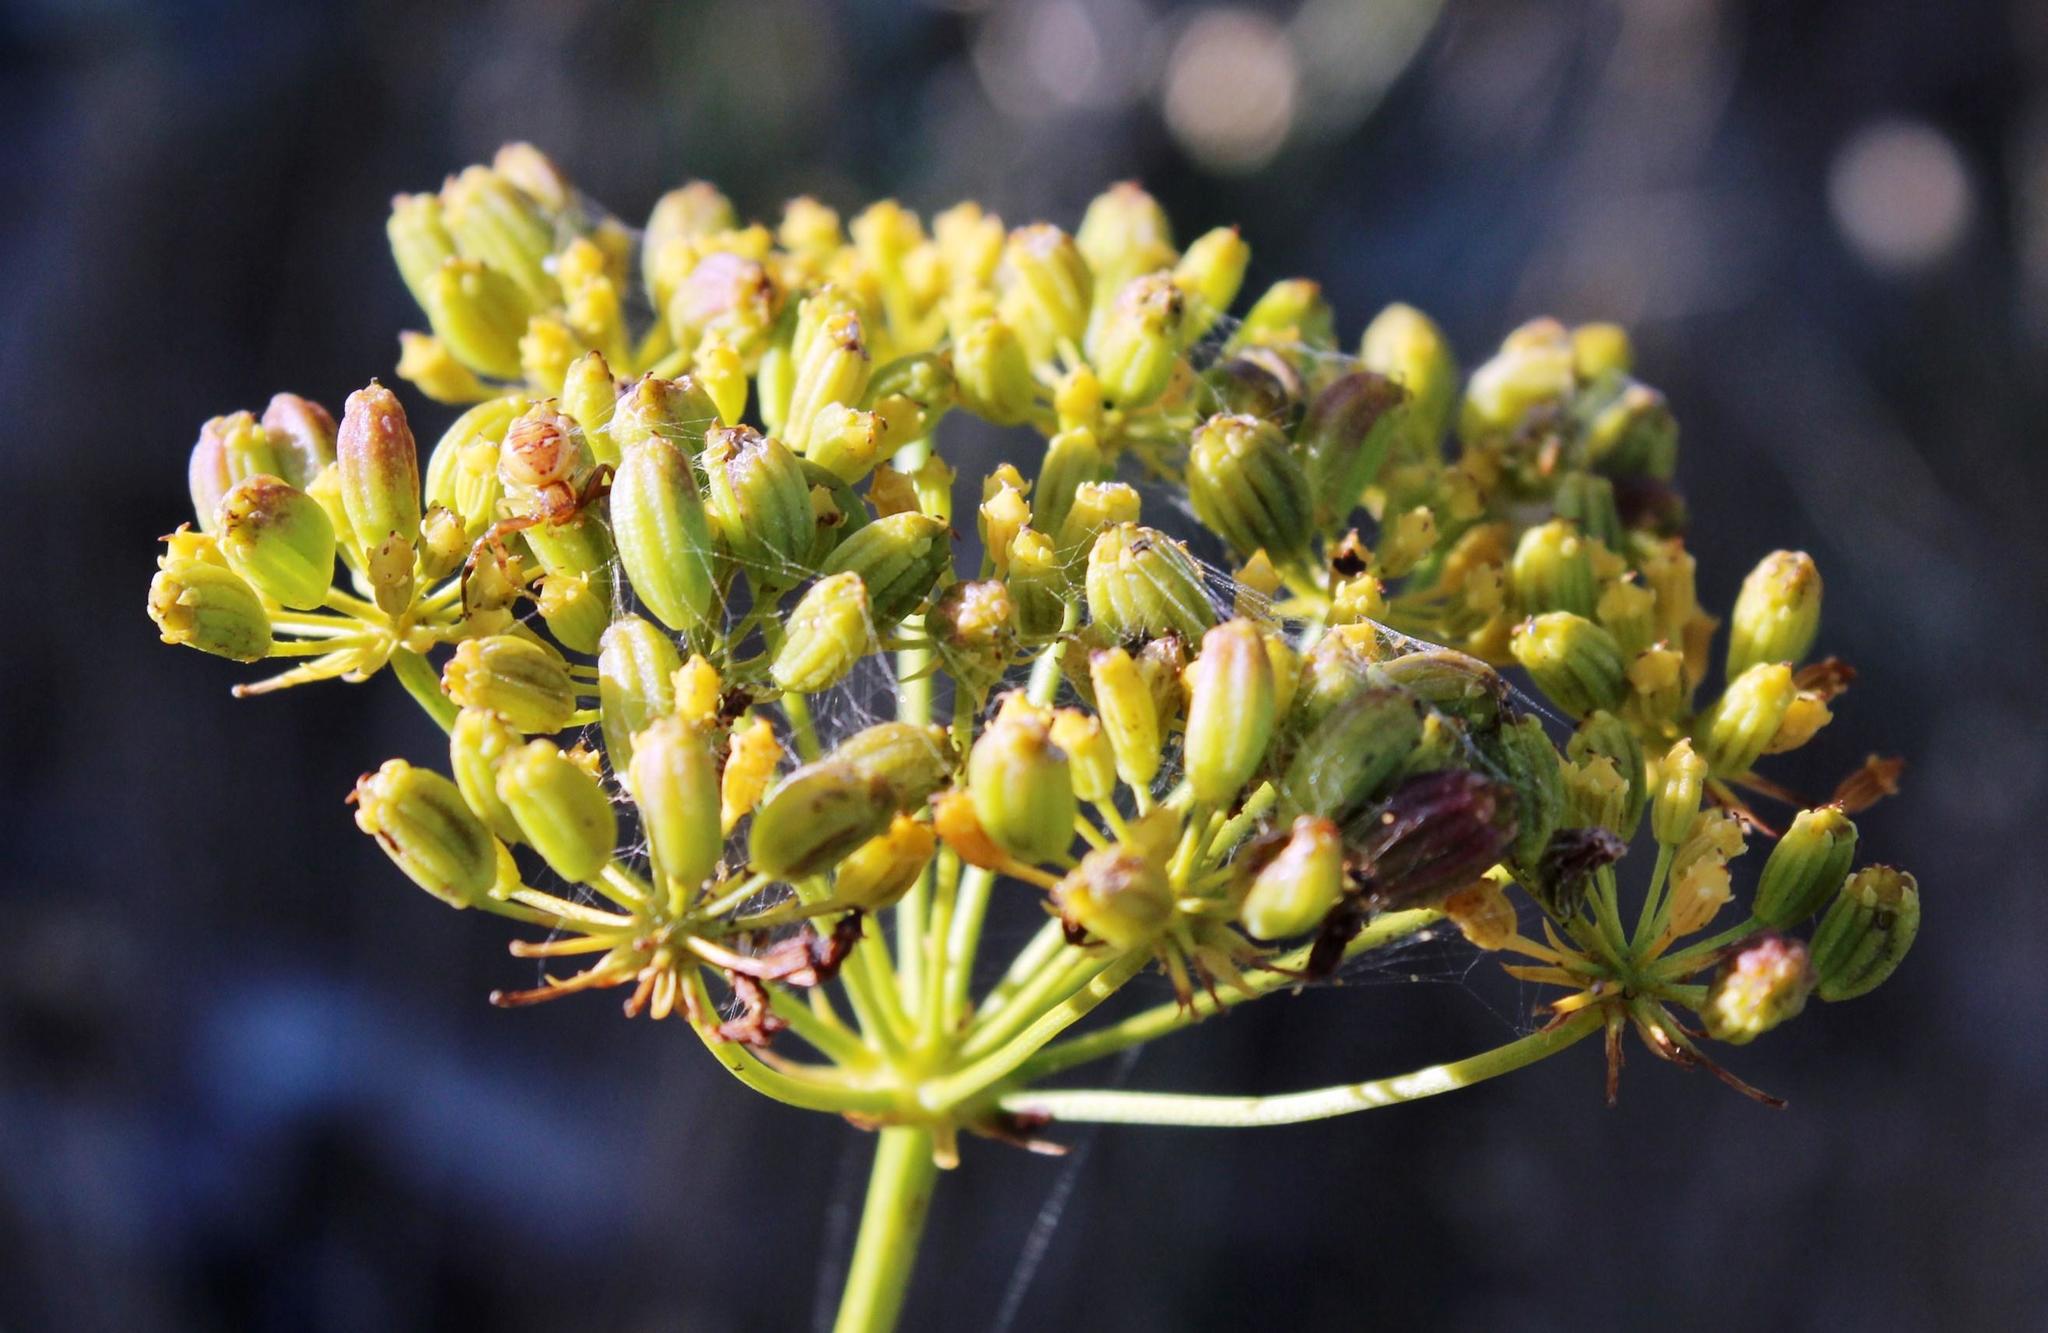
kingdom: Plantae
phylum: Tracheophyta
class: Magnoliopsida
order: Apiales
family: Apiaceae
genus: Glia
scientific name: Glia prolifera
